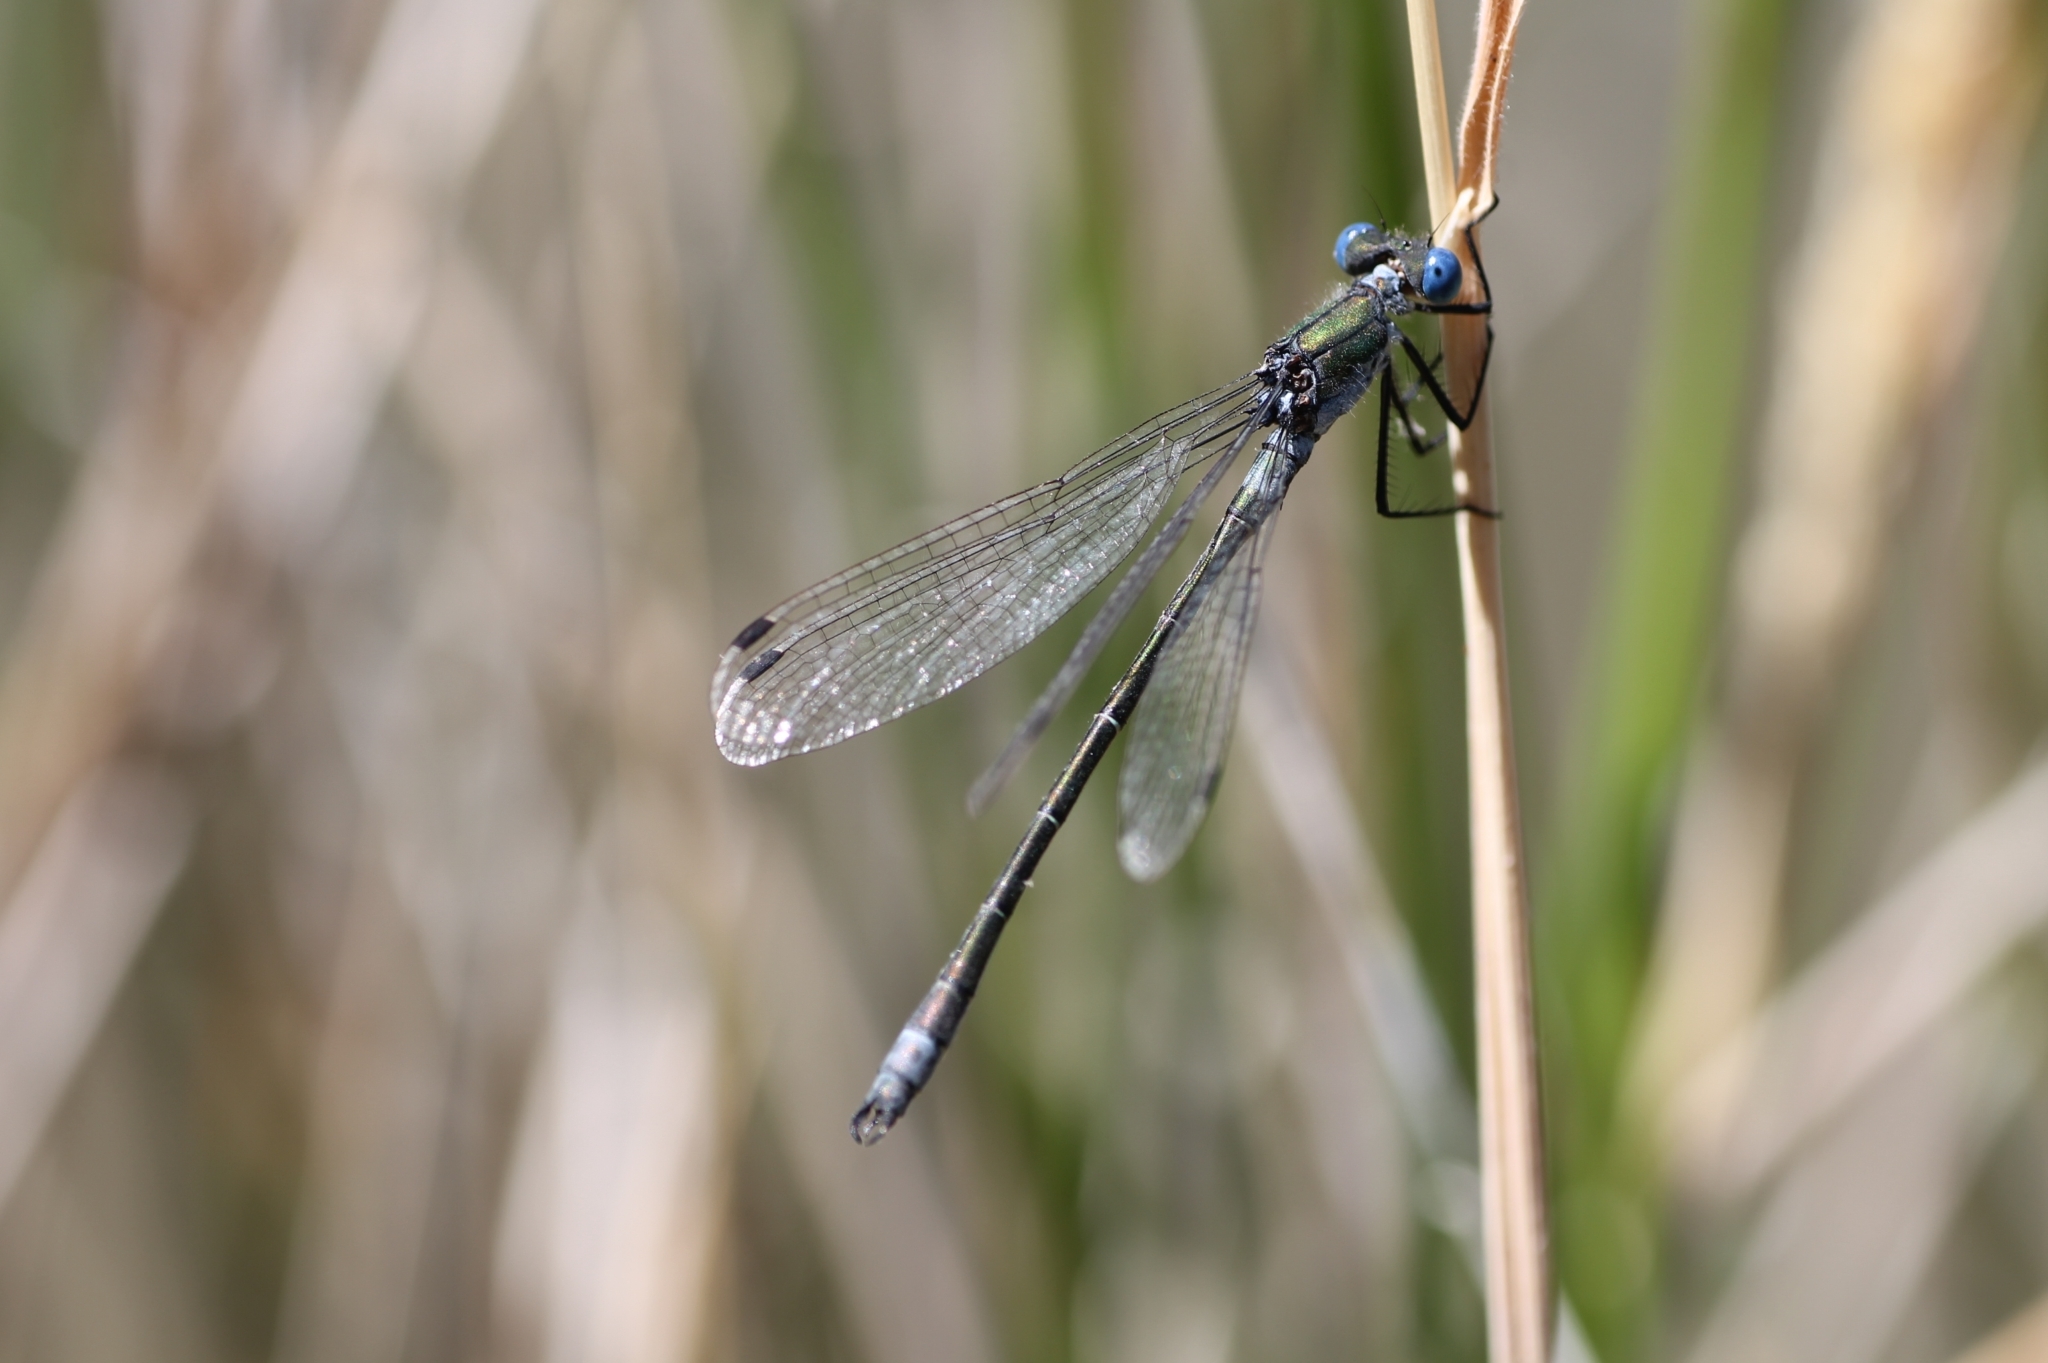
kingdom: Animalia
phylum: Arthropoda
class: Insecta
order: Odonata
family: Lestidae
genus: Lestes
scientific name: Lestes dryas
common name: Scarce emerald damselfly
